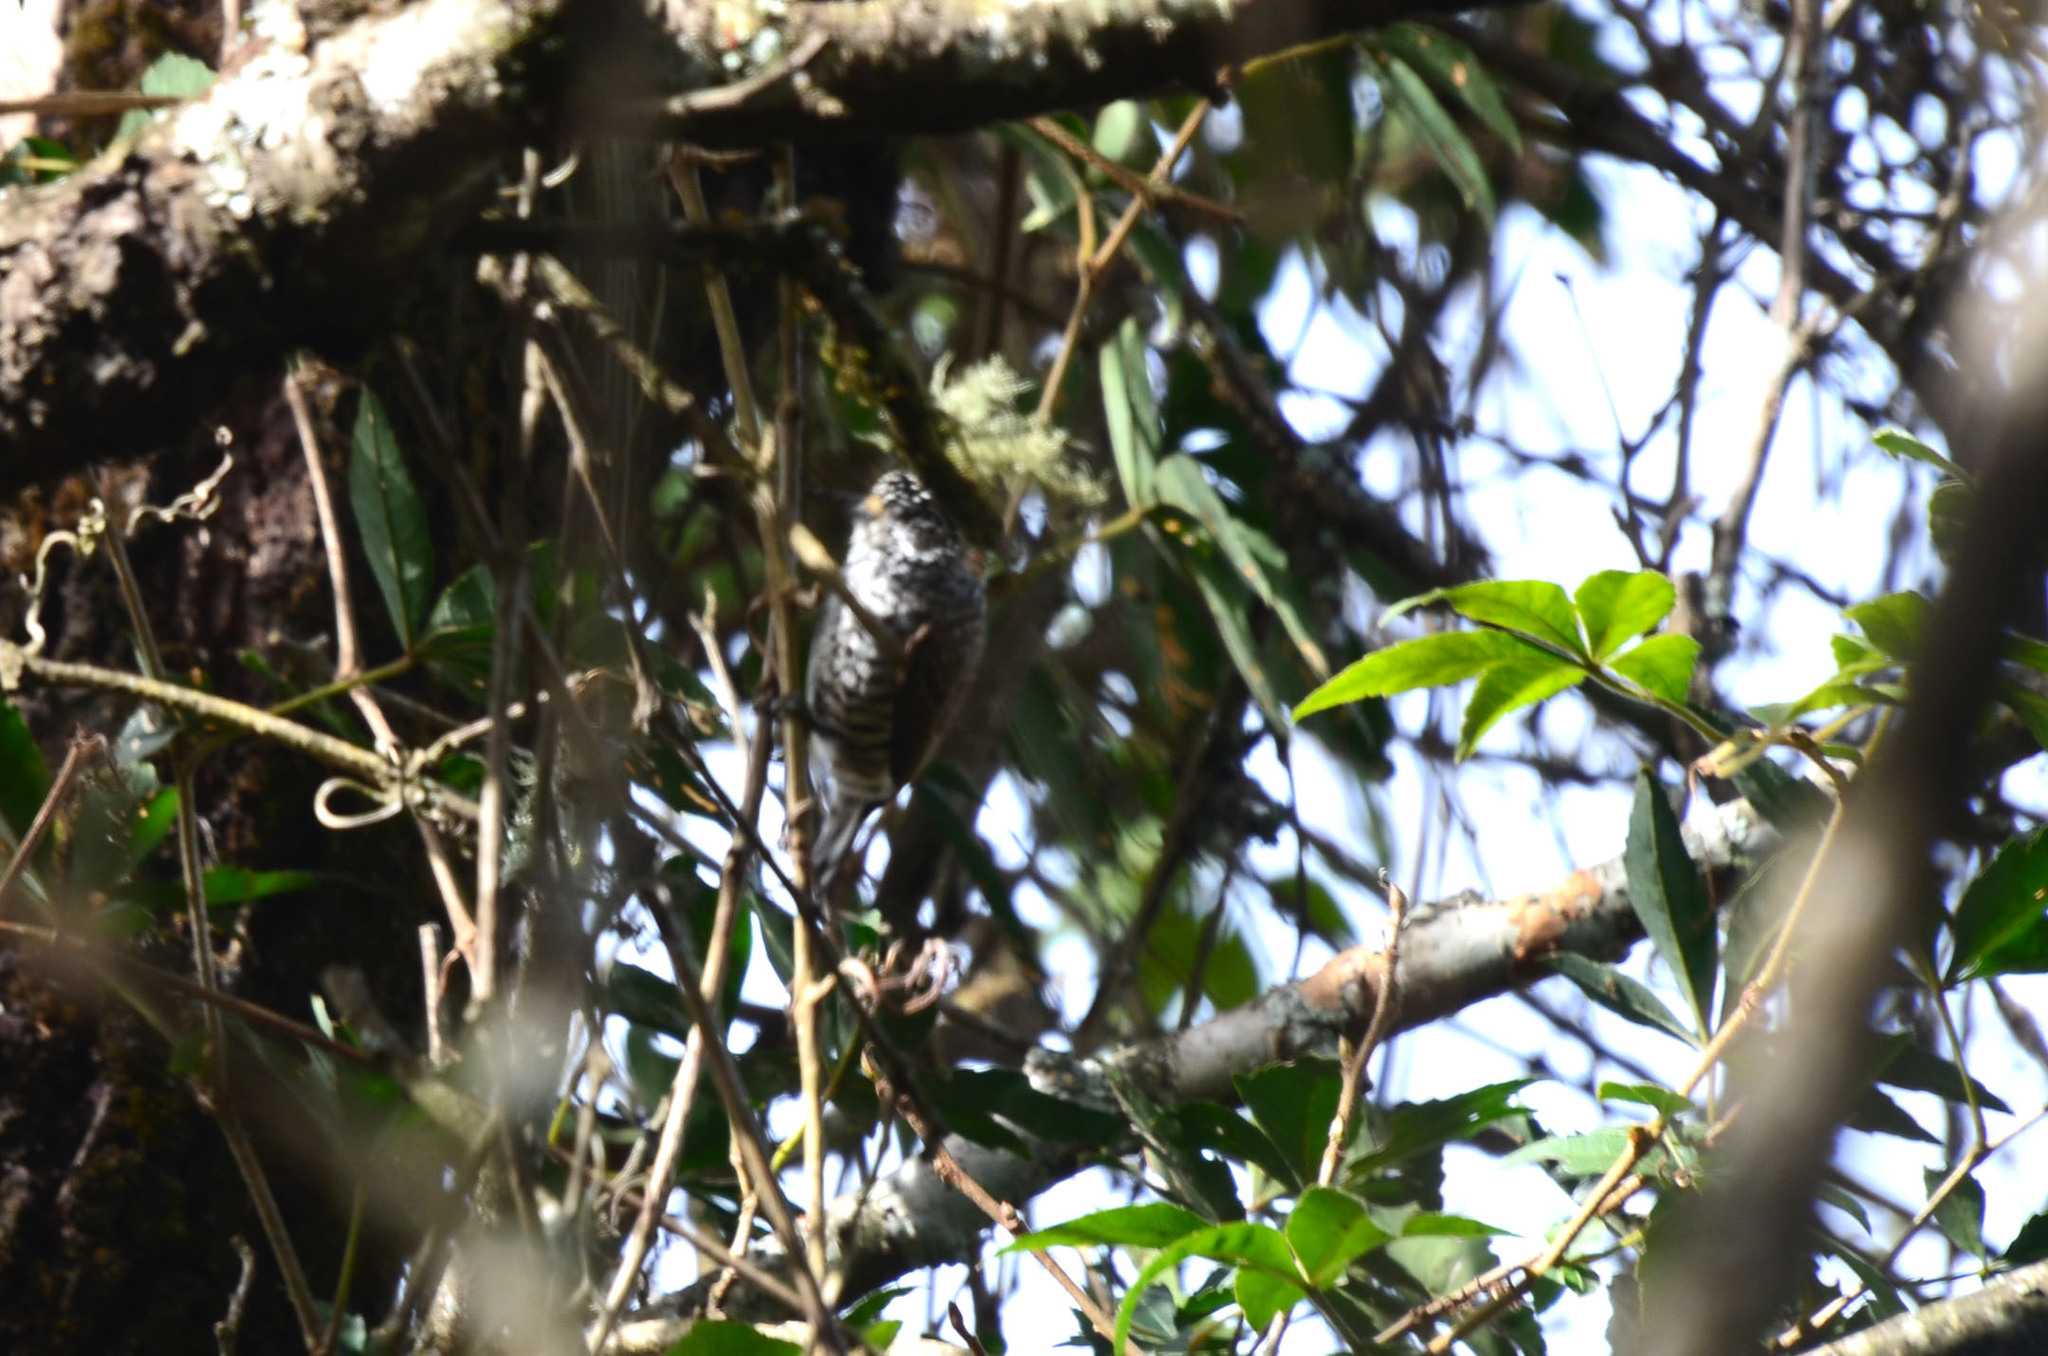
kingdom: Animalia
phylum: Chordata
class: Aves
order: Piciformes
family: Picidae
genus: Picumnus
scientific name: Picumnus cirratus
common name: White-barred piculet
